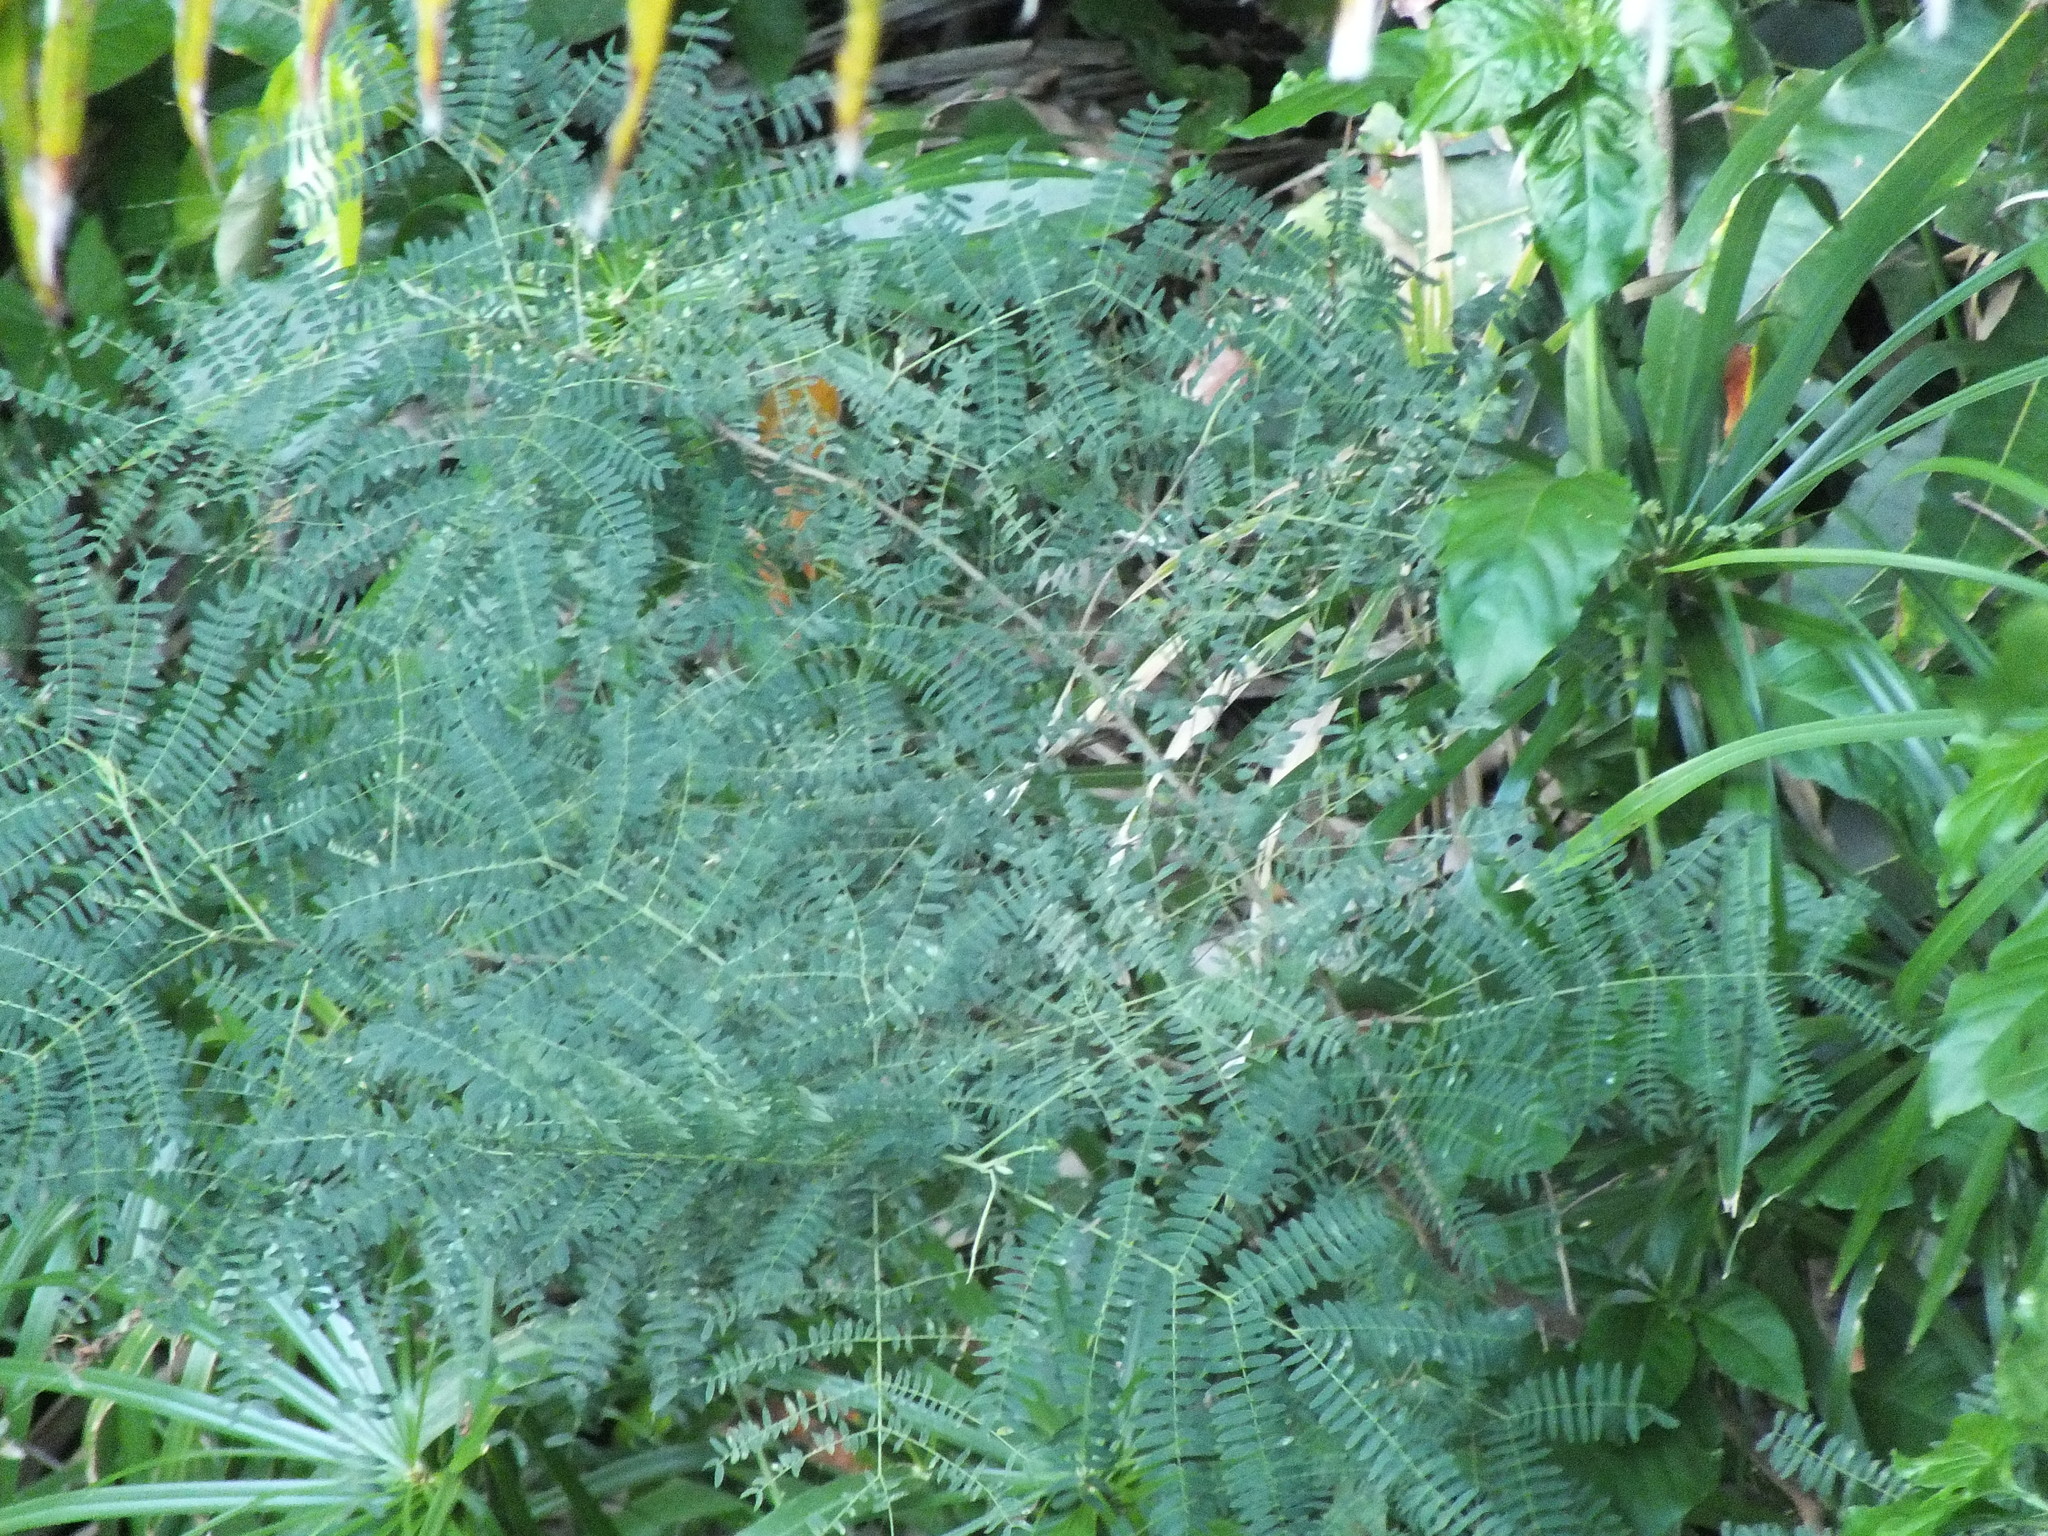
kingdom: Plantae
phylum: Tracheophyta
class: Magnoliopsida
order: Fabales
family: Fabaceae
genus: Leucaena
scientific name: Leucaena leucocephala
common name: White leadtree
